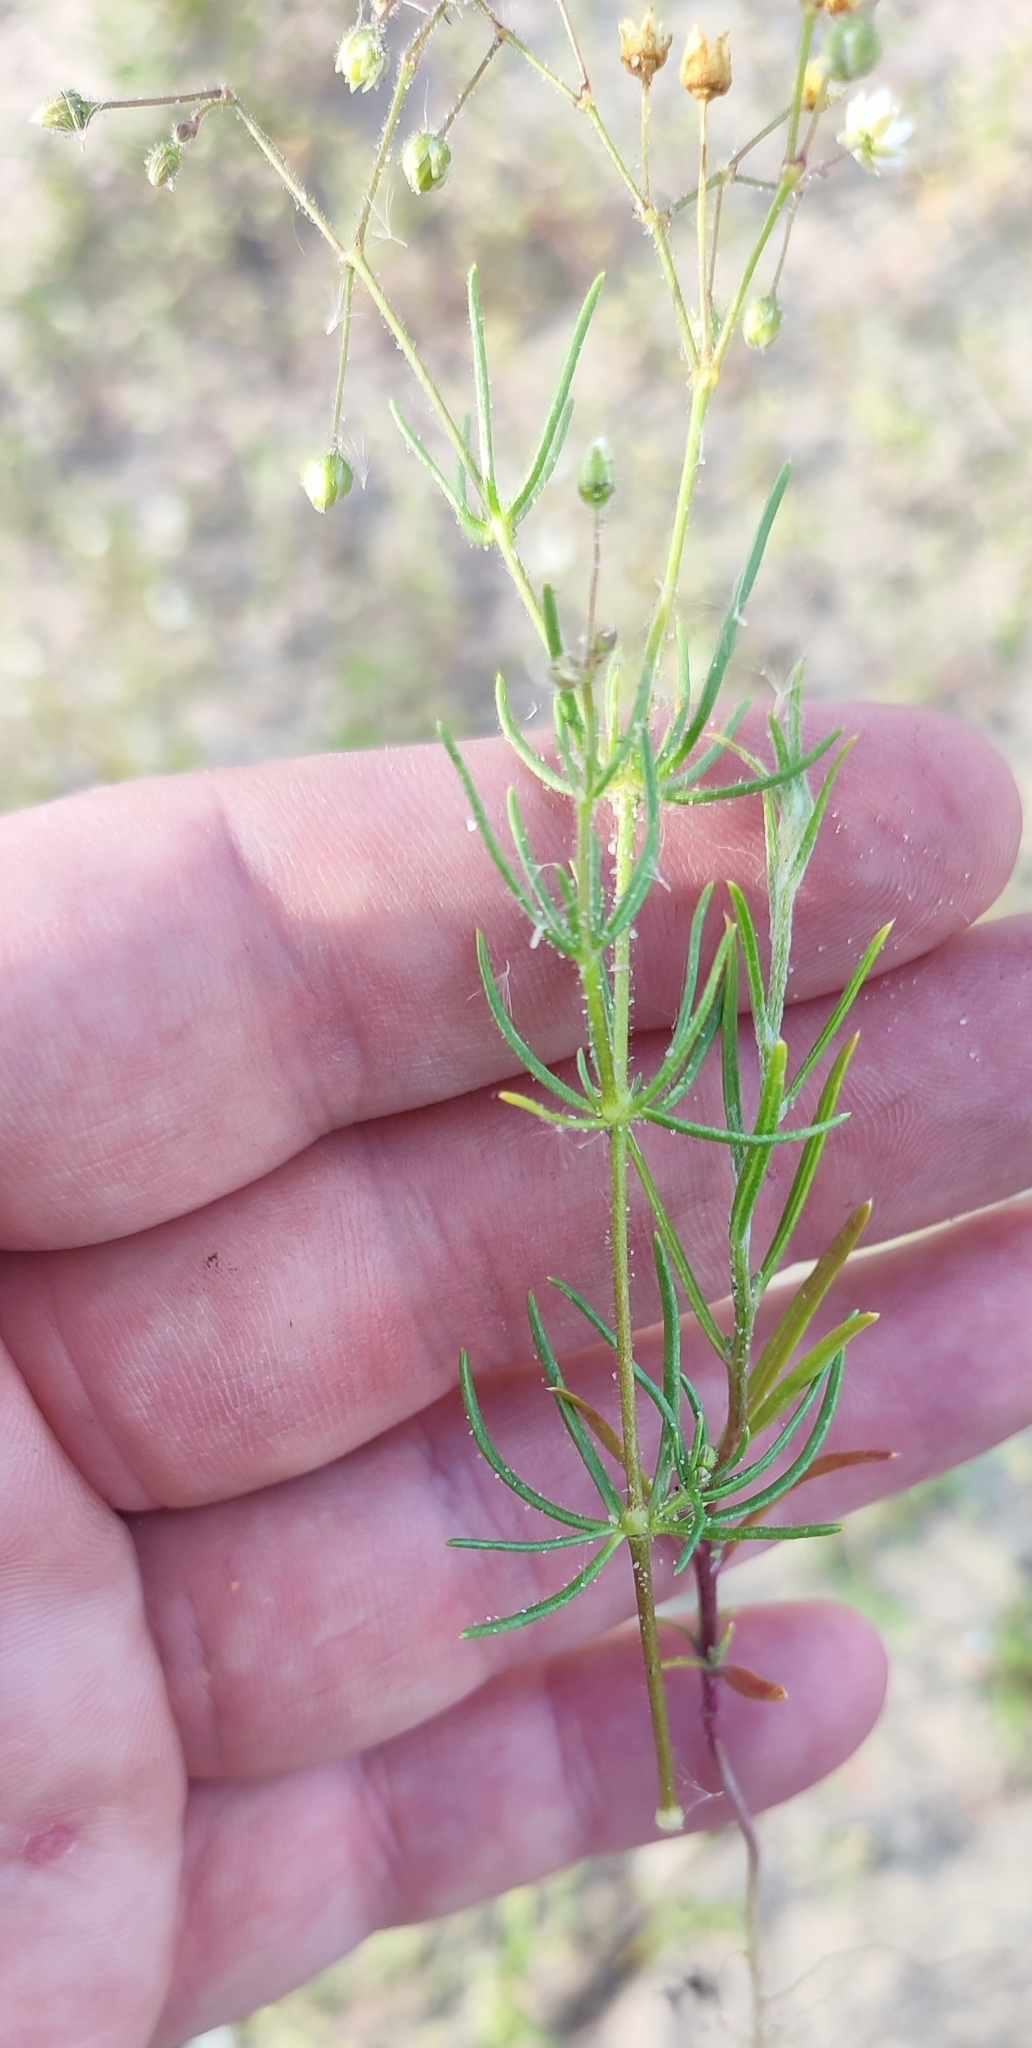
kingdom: Plantae
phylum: Tracheophyta
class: Magnoliopsida
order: Caryophyllales
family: Caryophyllaceae
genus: Spergula
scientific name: Spergula arvensis
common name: Corn spurrey
